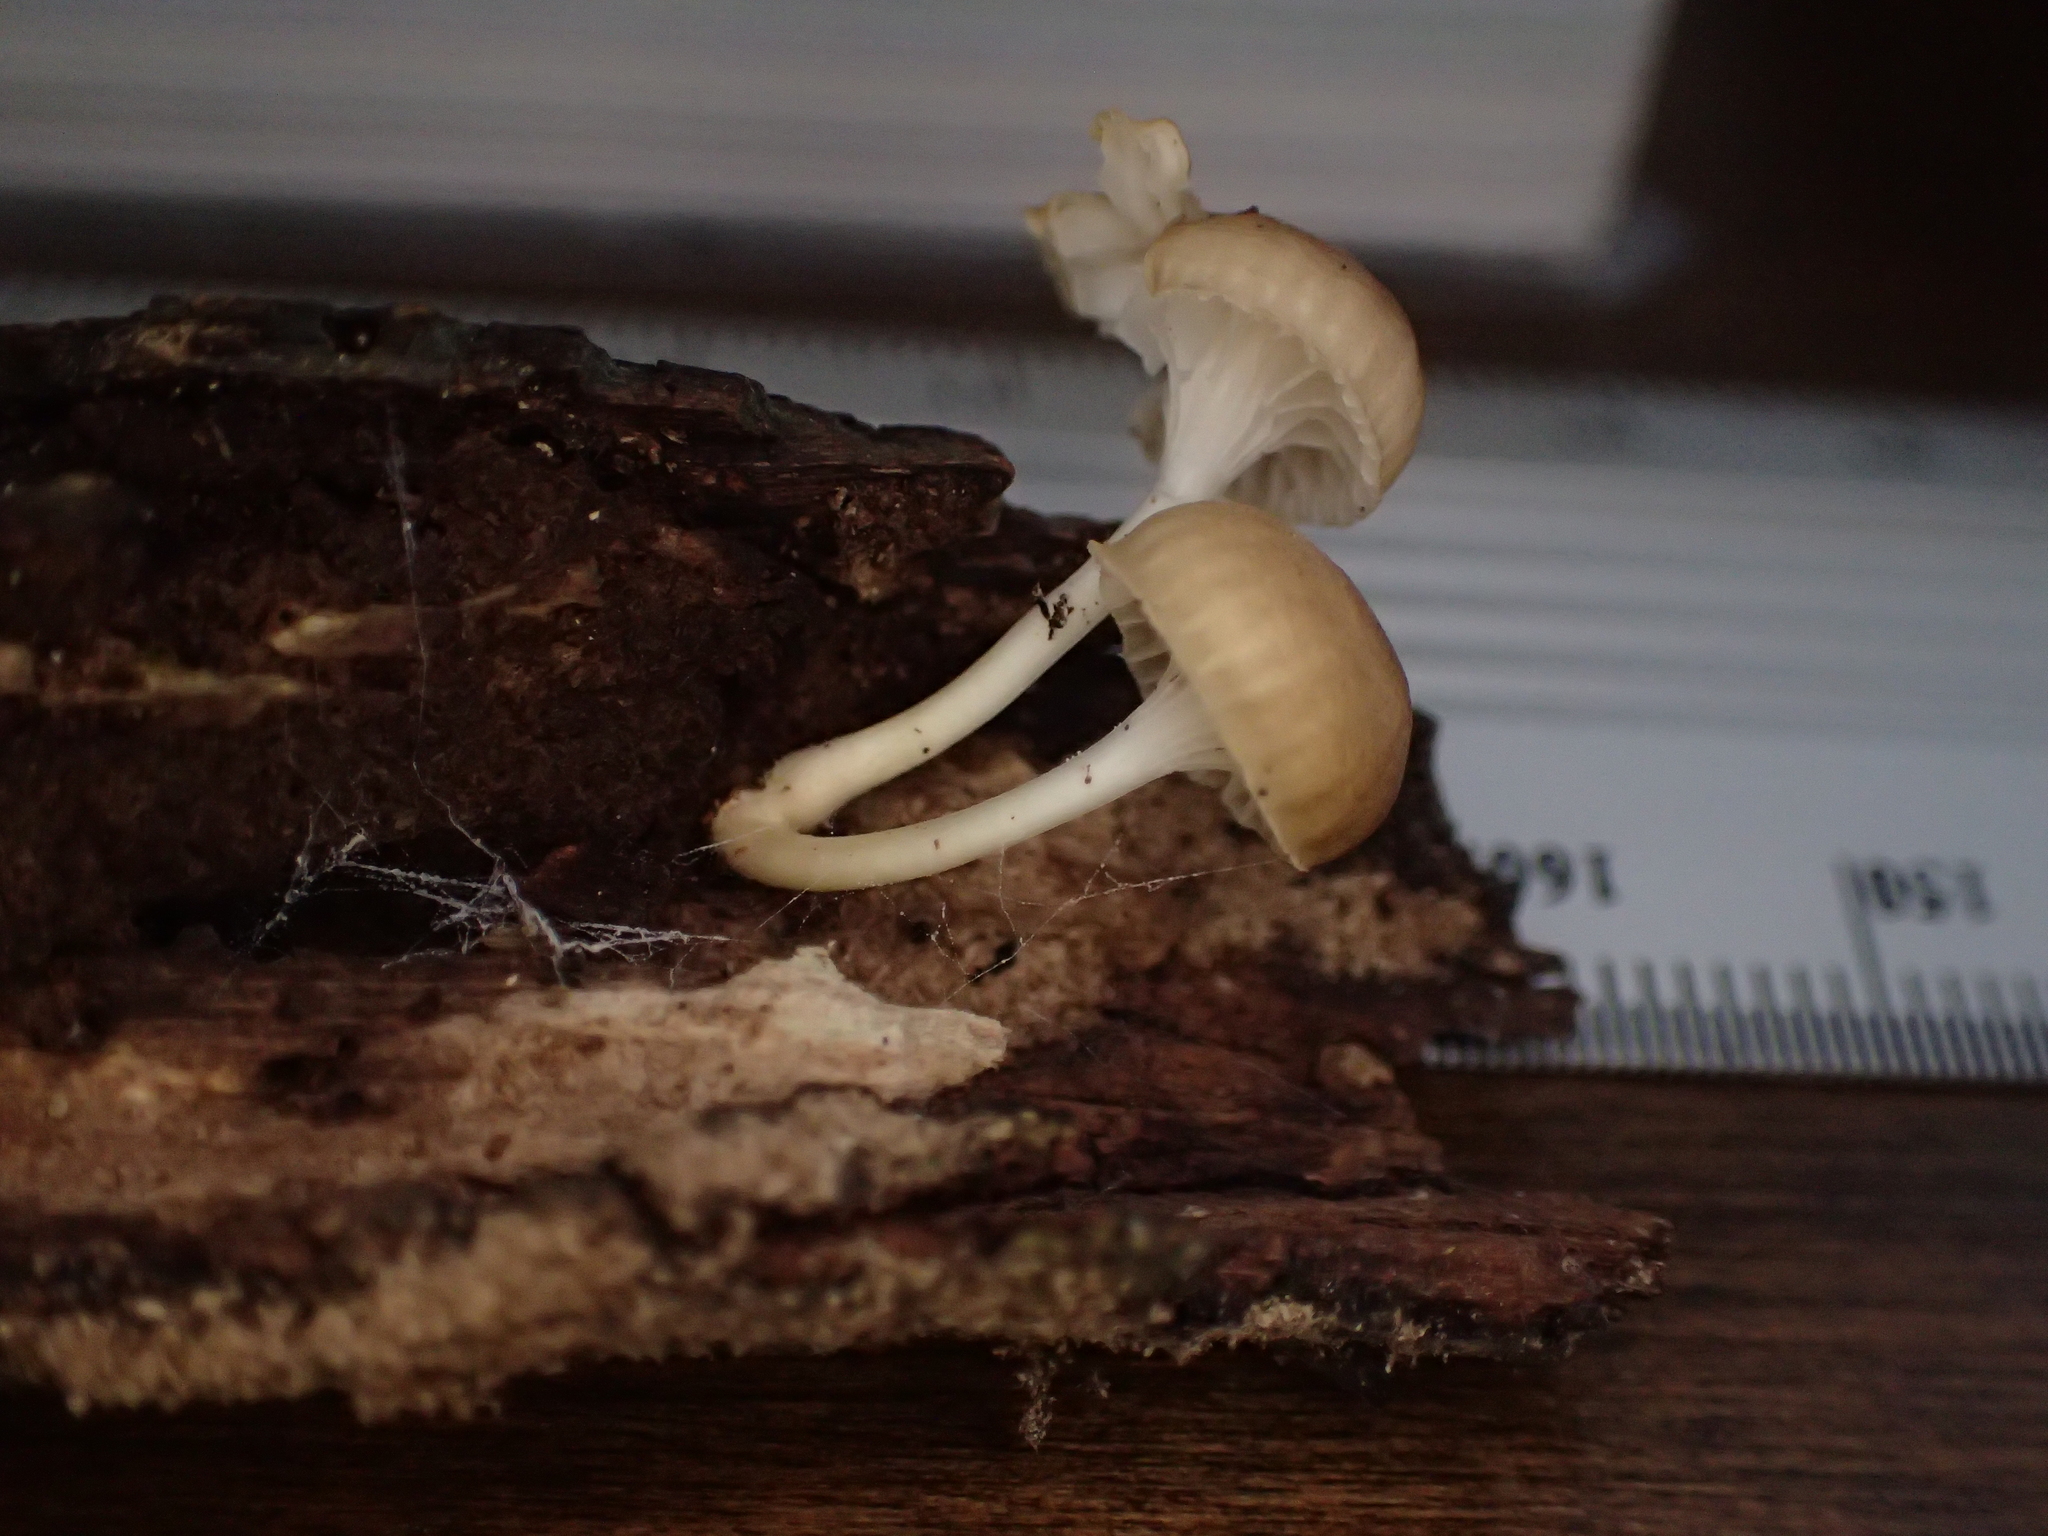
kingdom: Fungi
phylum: Basidiomycota
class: Agaricomycetes
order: Agaricales
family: Mycenaceae
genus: Roridomyces
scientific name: Roridomyces austrororidus
